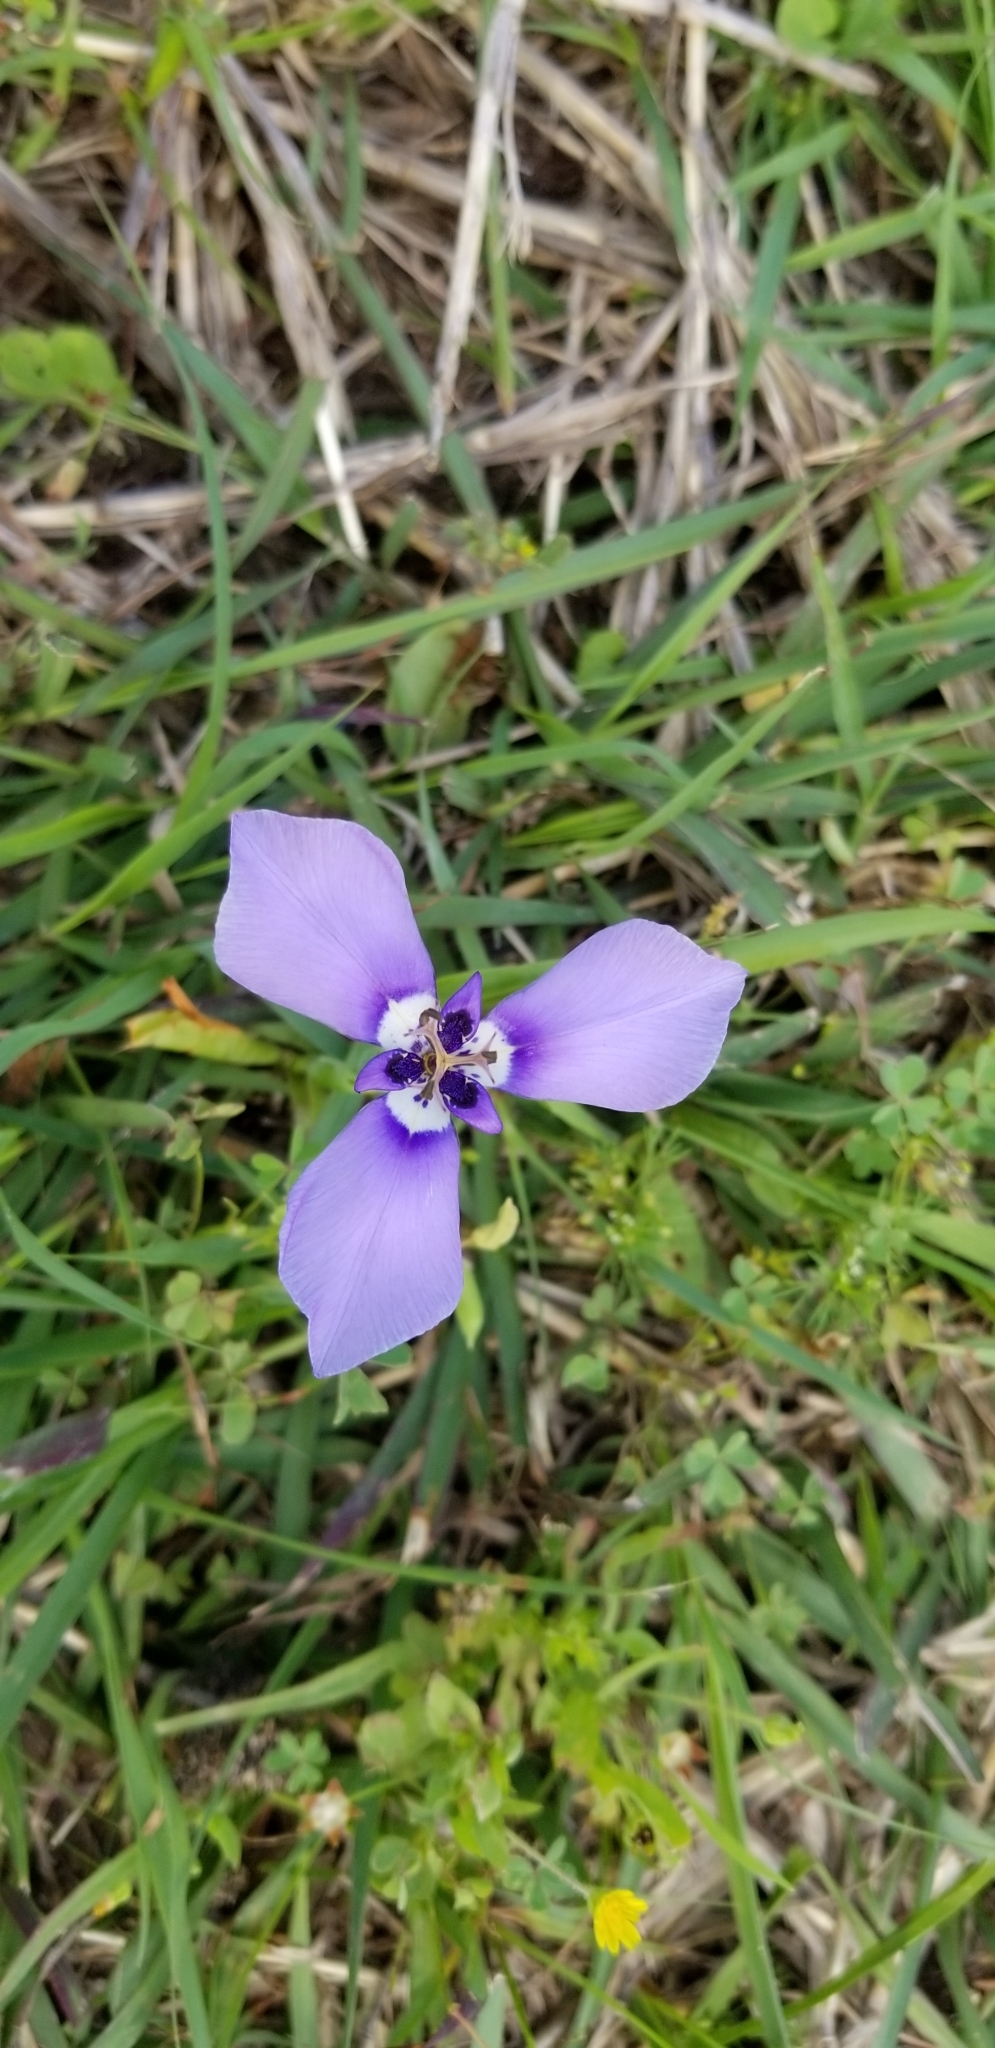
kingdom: Plantae
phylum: Tracheophyta
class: Liliopsida
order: Asparagales
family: Iridaceae
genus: Herbertia
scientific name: Herbertia lahue
